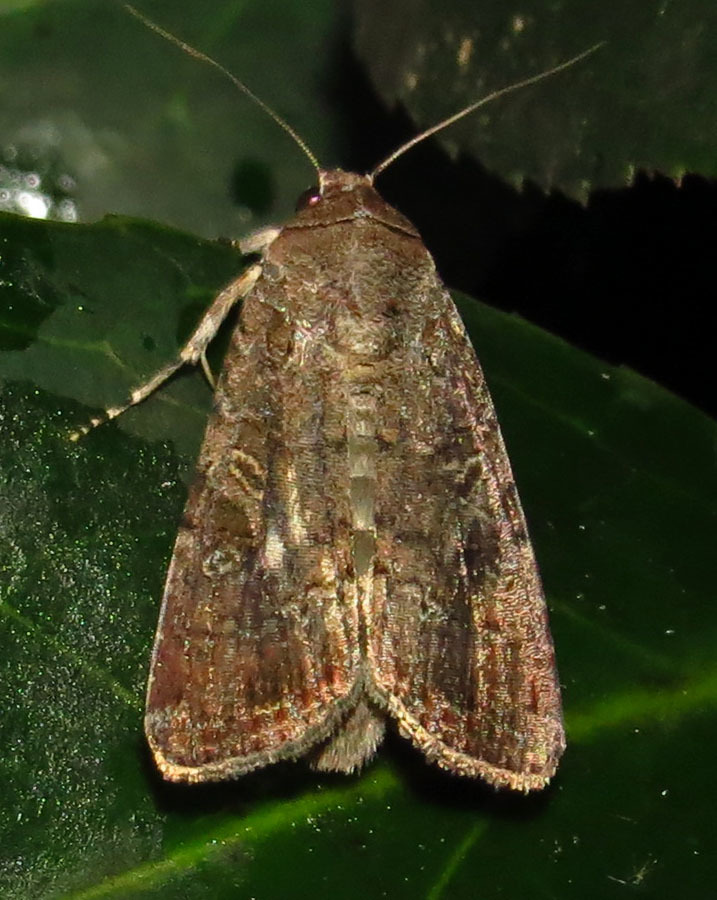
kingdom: Animalia
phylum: Arthropoda
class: Insecta
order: Lepidoptera
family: Noctuidae
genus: Spodoptera
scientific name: Spodoptera frugiperda
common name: Fall armyworm
